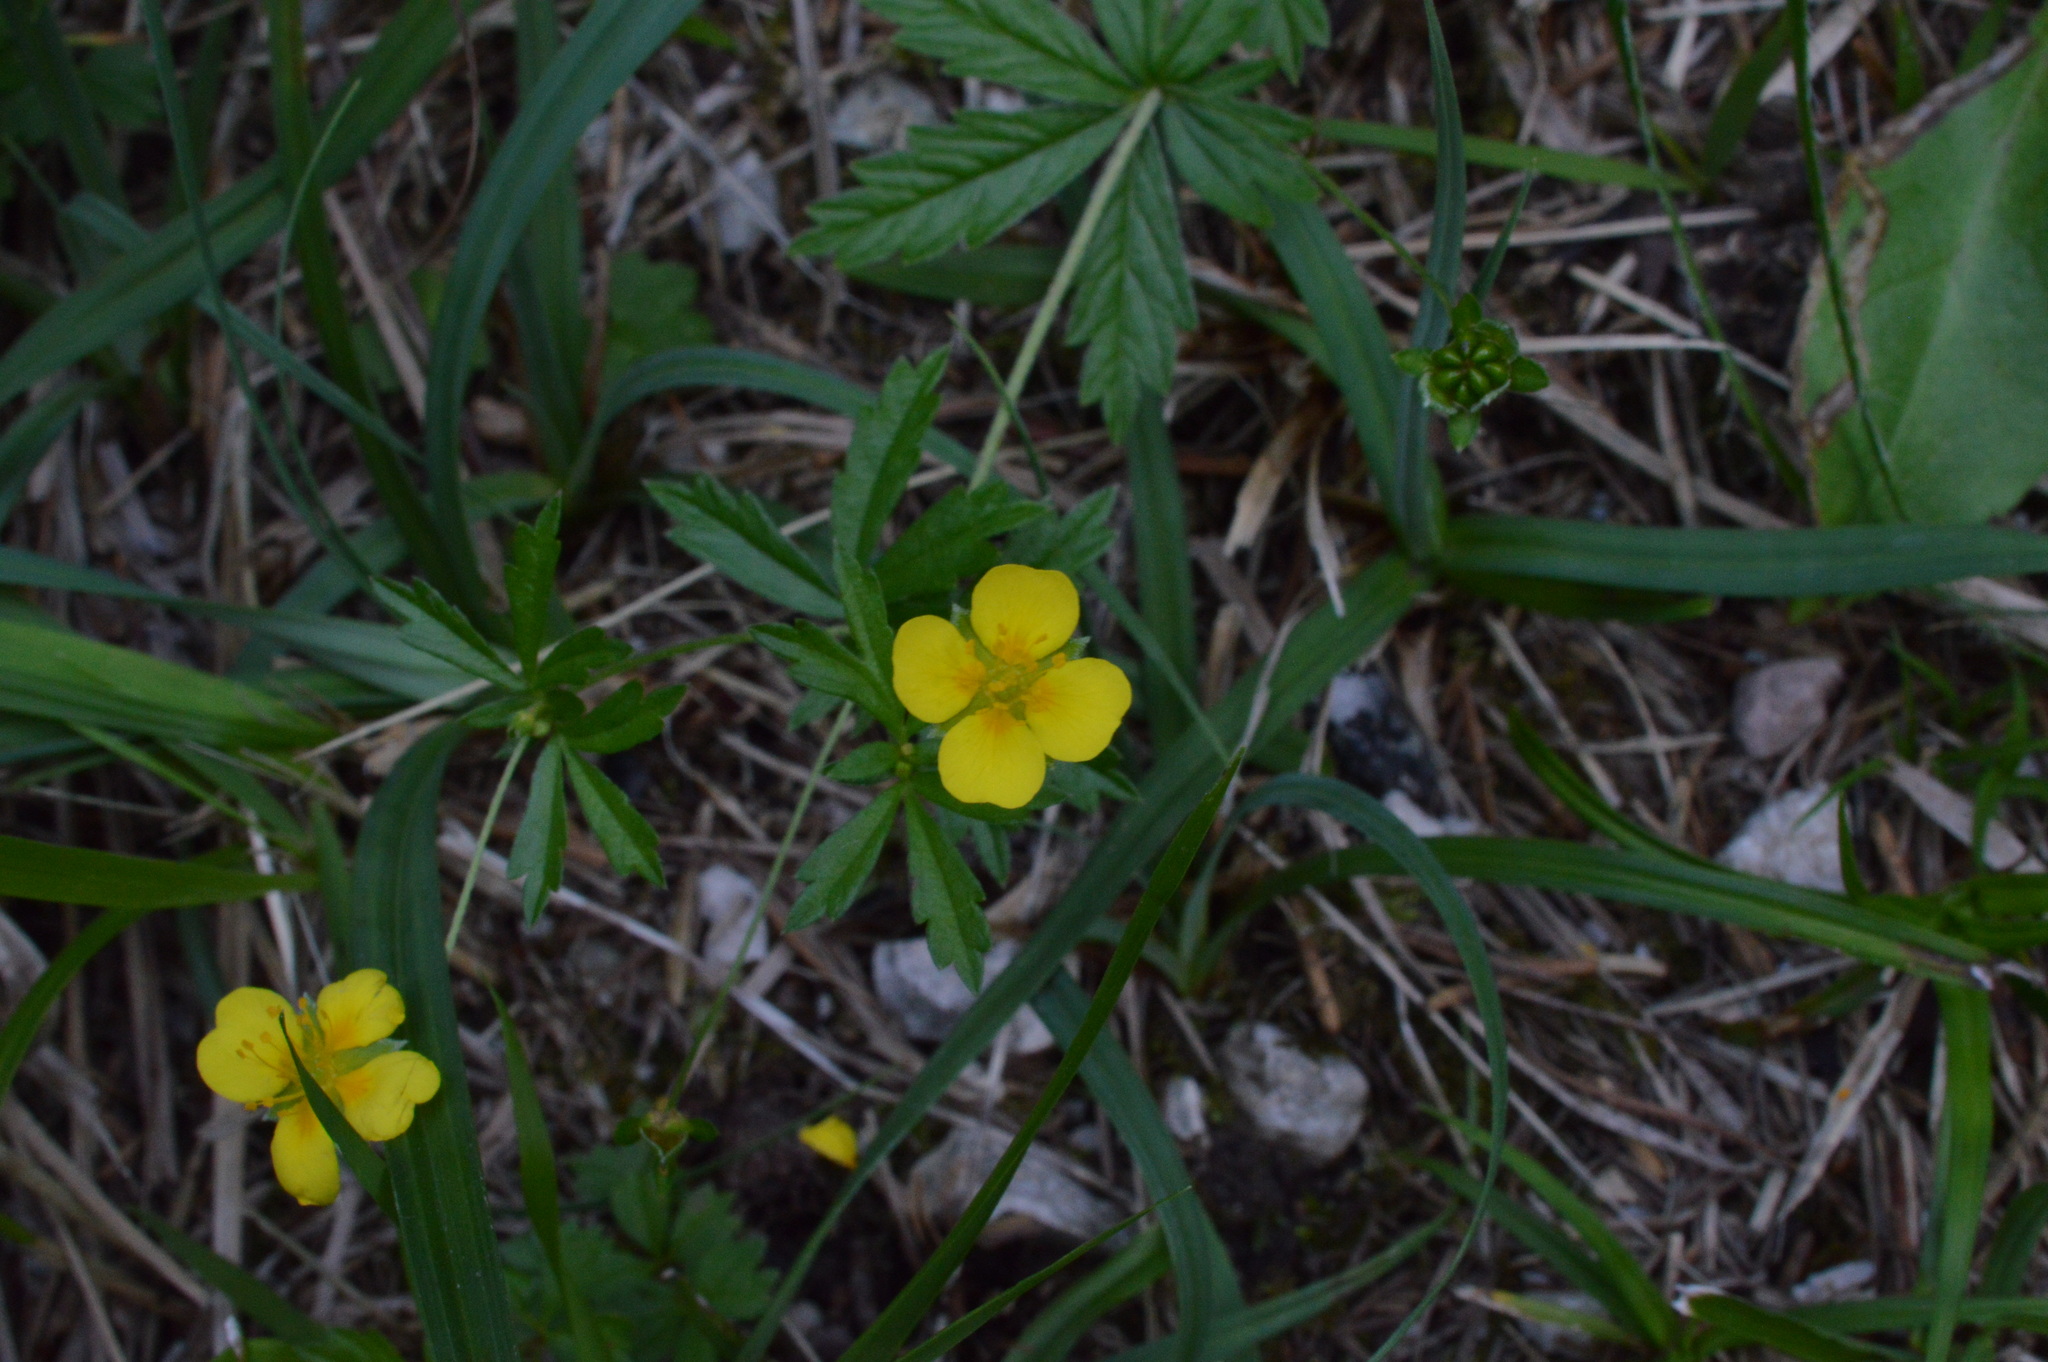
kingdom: Plantae
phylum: Tracheophyta
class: Magnoliopsida
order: Rosales
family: Rosaceae
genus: Potentilla
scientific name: Potentilla erecta
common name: Tormentil
